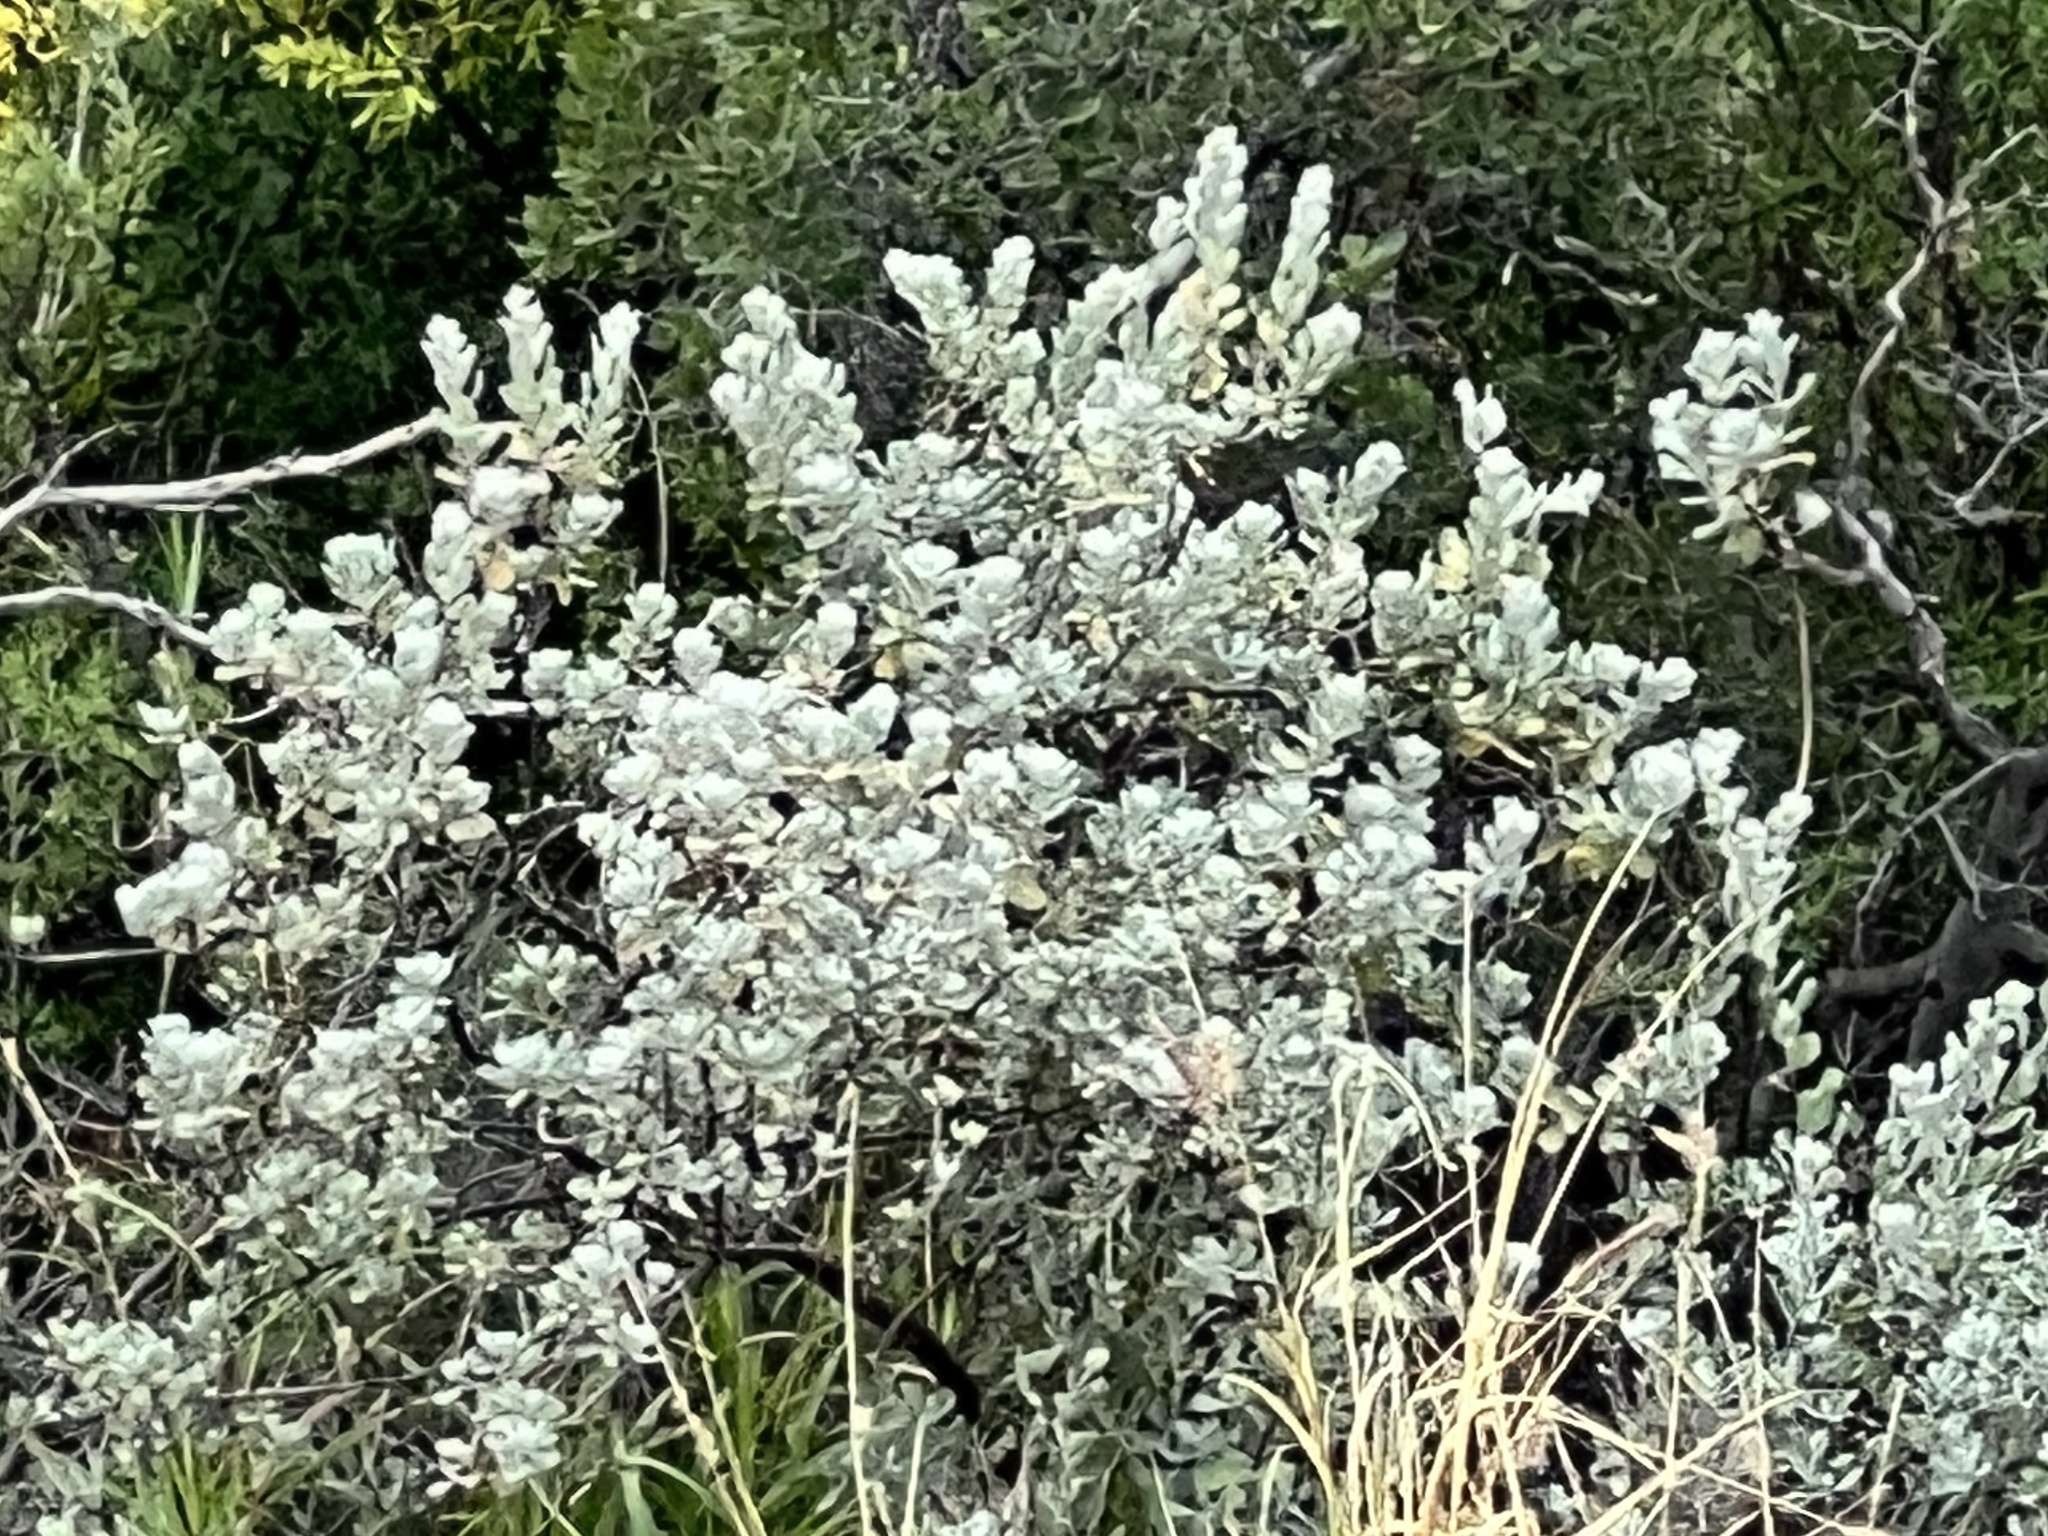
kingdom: Plantae
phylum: Tracheophyta
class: Magnoliopsida
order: Lamiales
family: Scrophulariaceae
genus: Leucophyllum
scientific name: Leucophyllum frutescens
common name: Texas silverleaf
